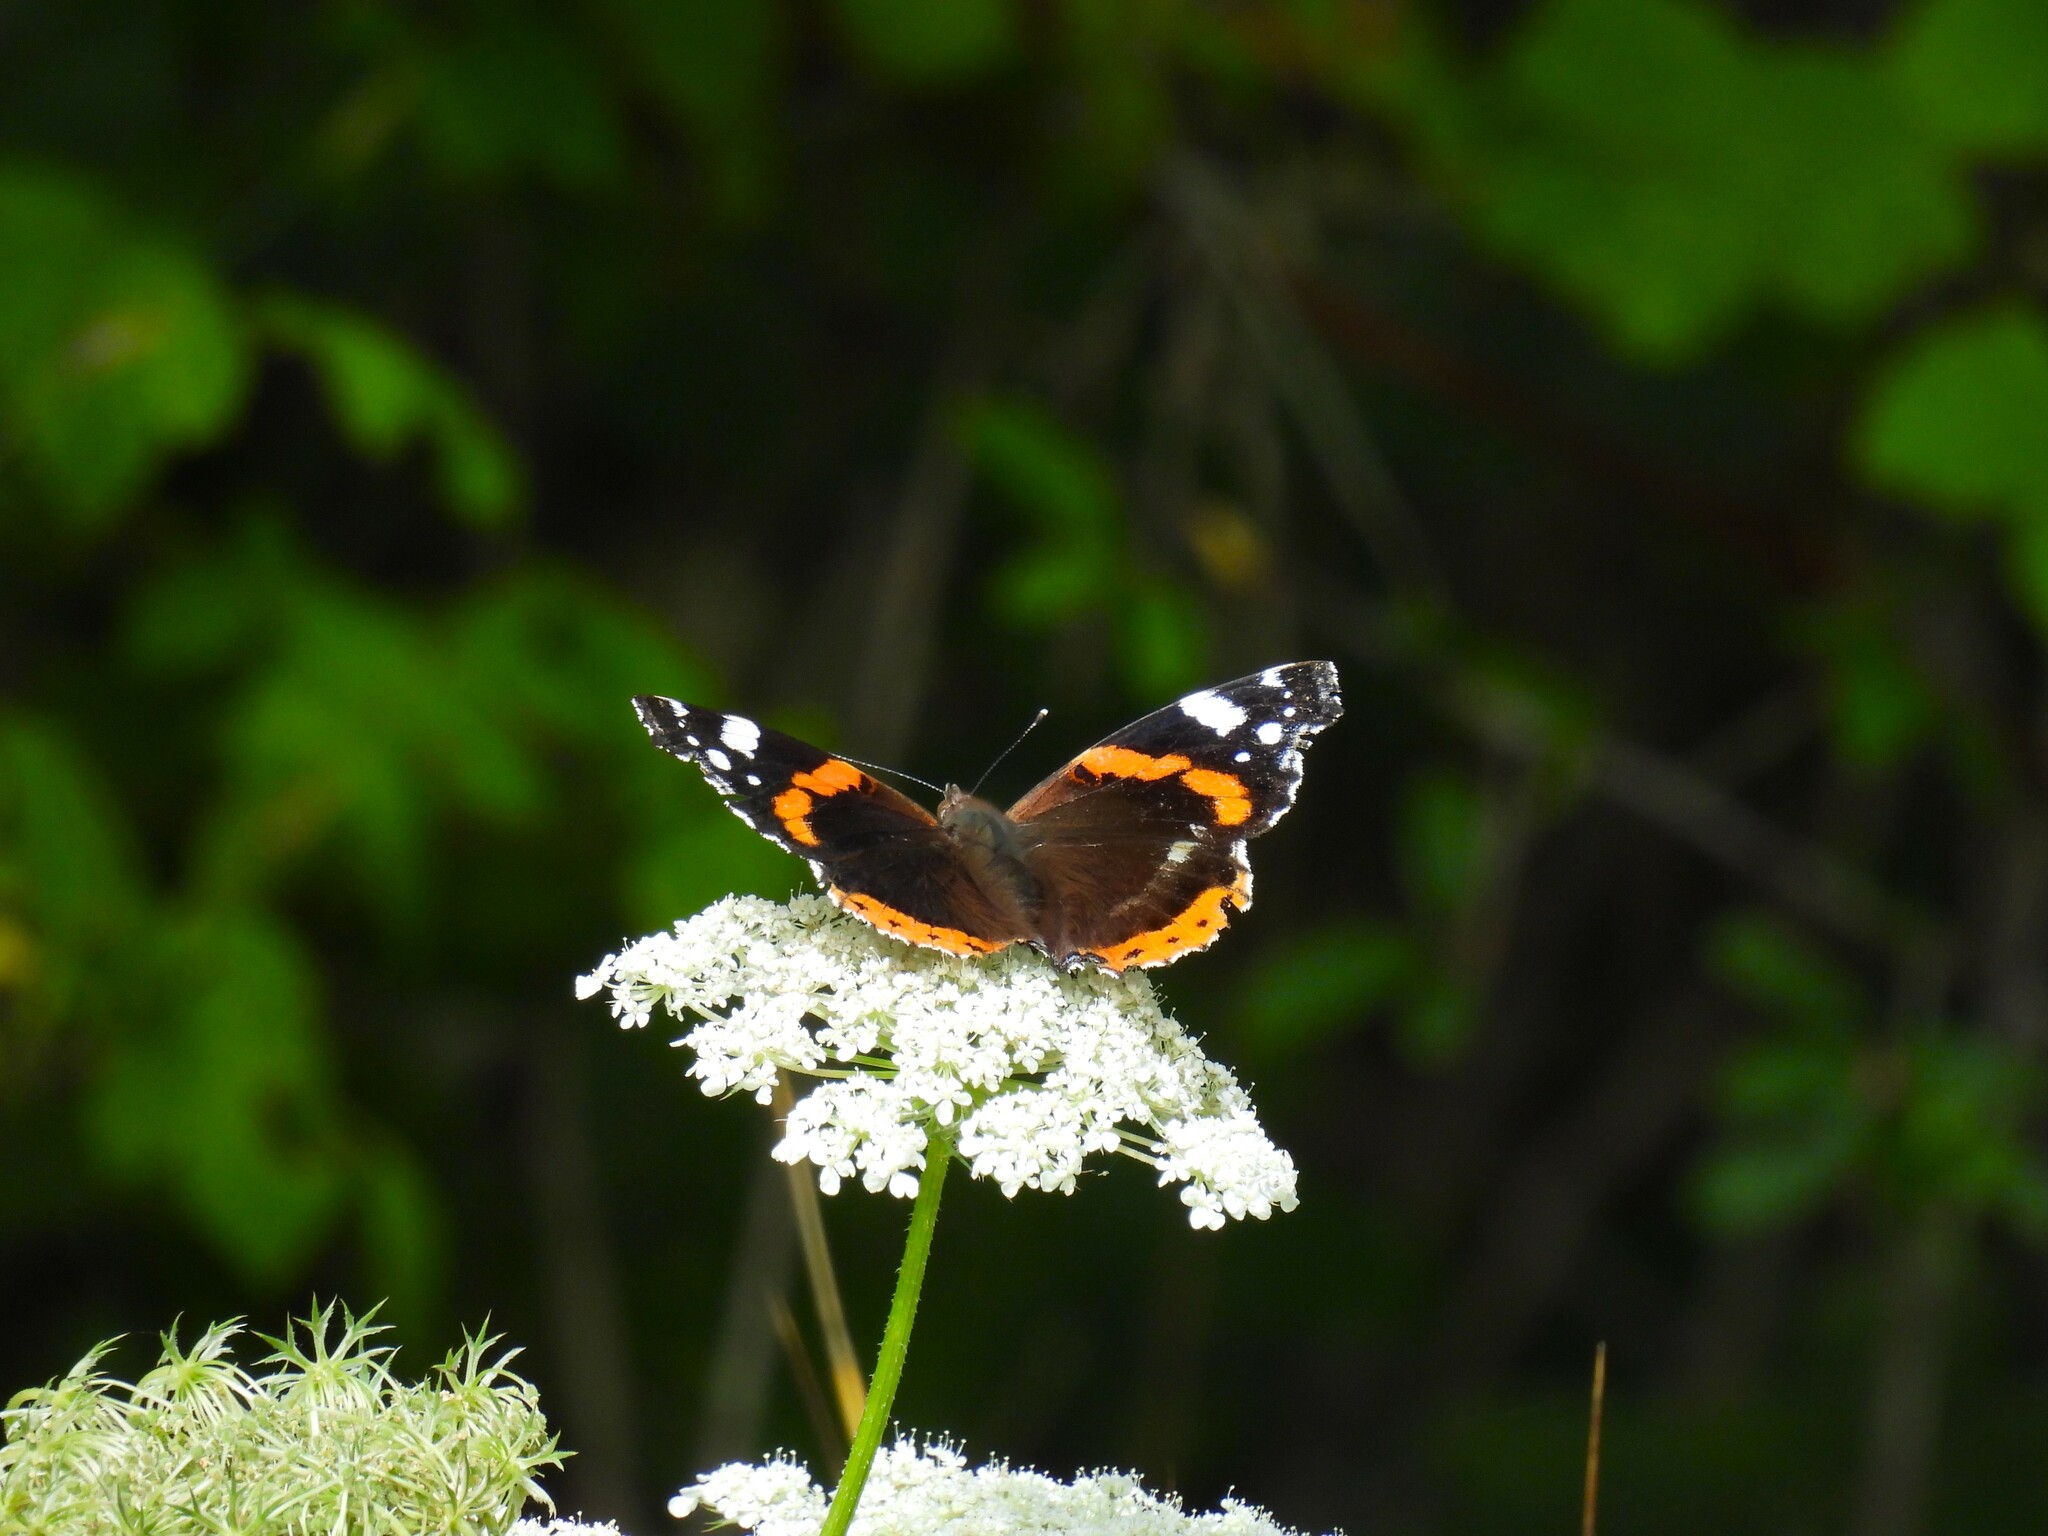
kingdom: Animalia
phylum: Arthropoda
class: Insecta
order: Lepidoptera
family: Nymphalidae
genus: Vanessa
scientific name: Vanessa atalanta
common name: Red admiral
